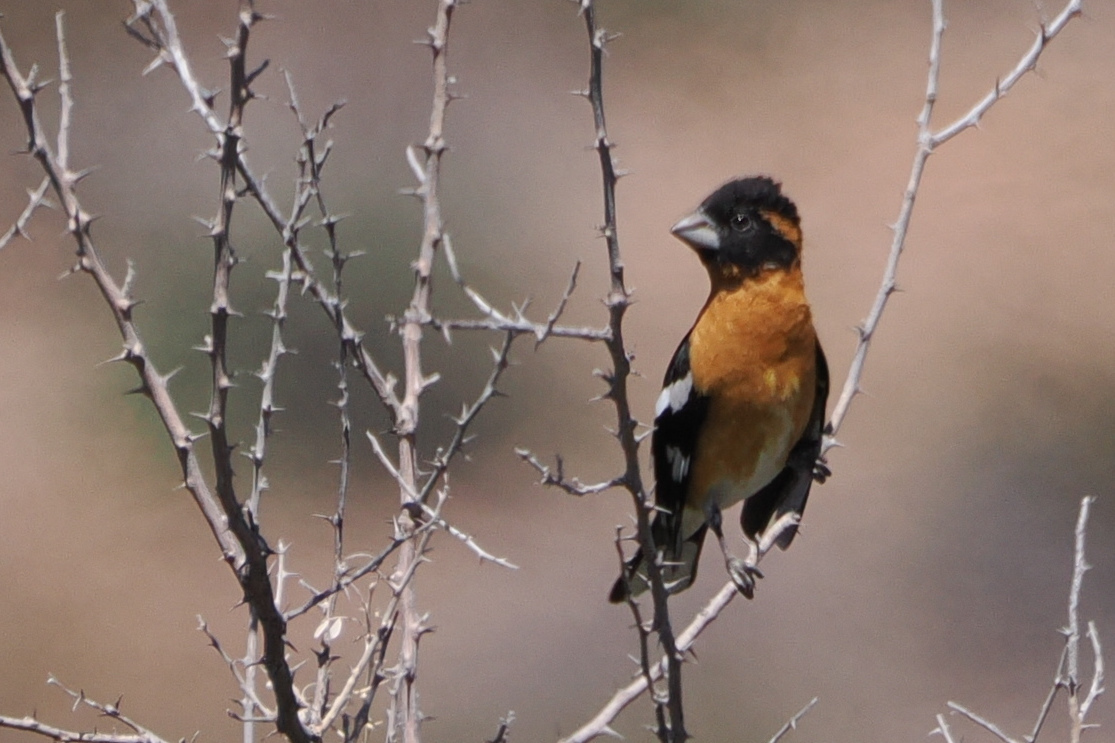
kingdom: Animalia
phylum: Chordata
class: Aves
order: Passeriformes
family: Cardinalidae
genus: Pheucticus
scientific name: Pheucticus melanocephalus
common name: Black-headed grosbeak
